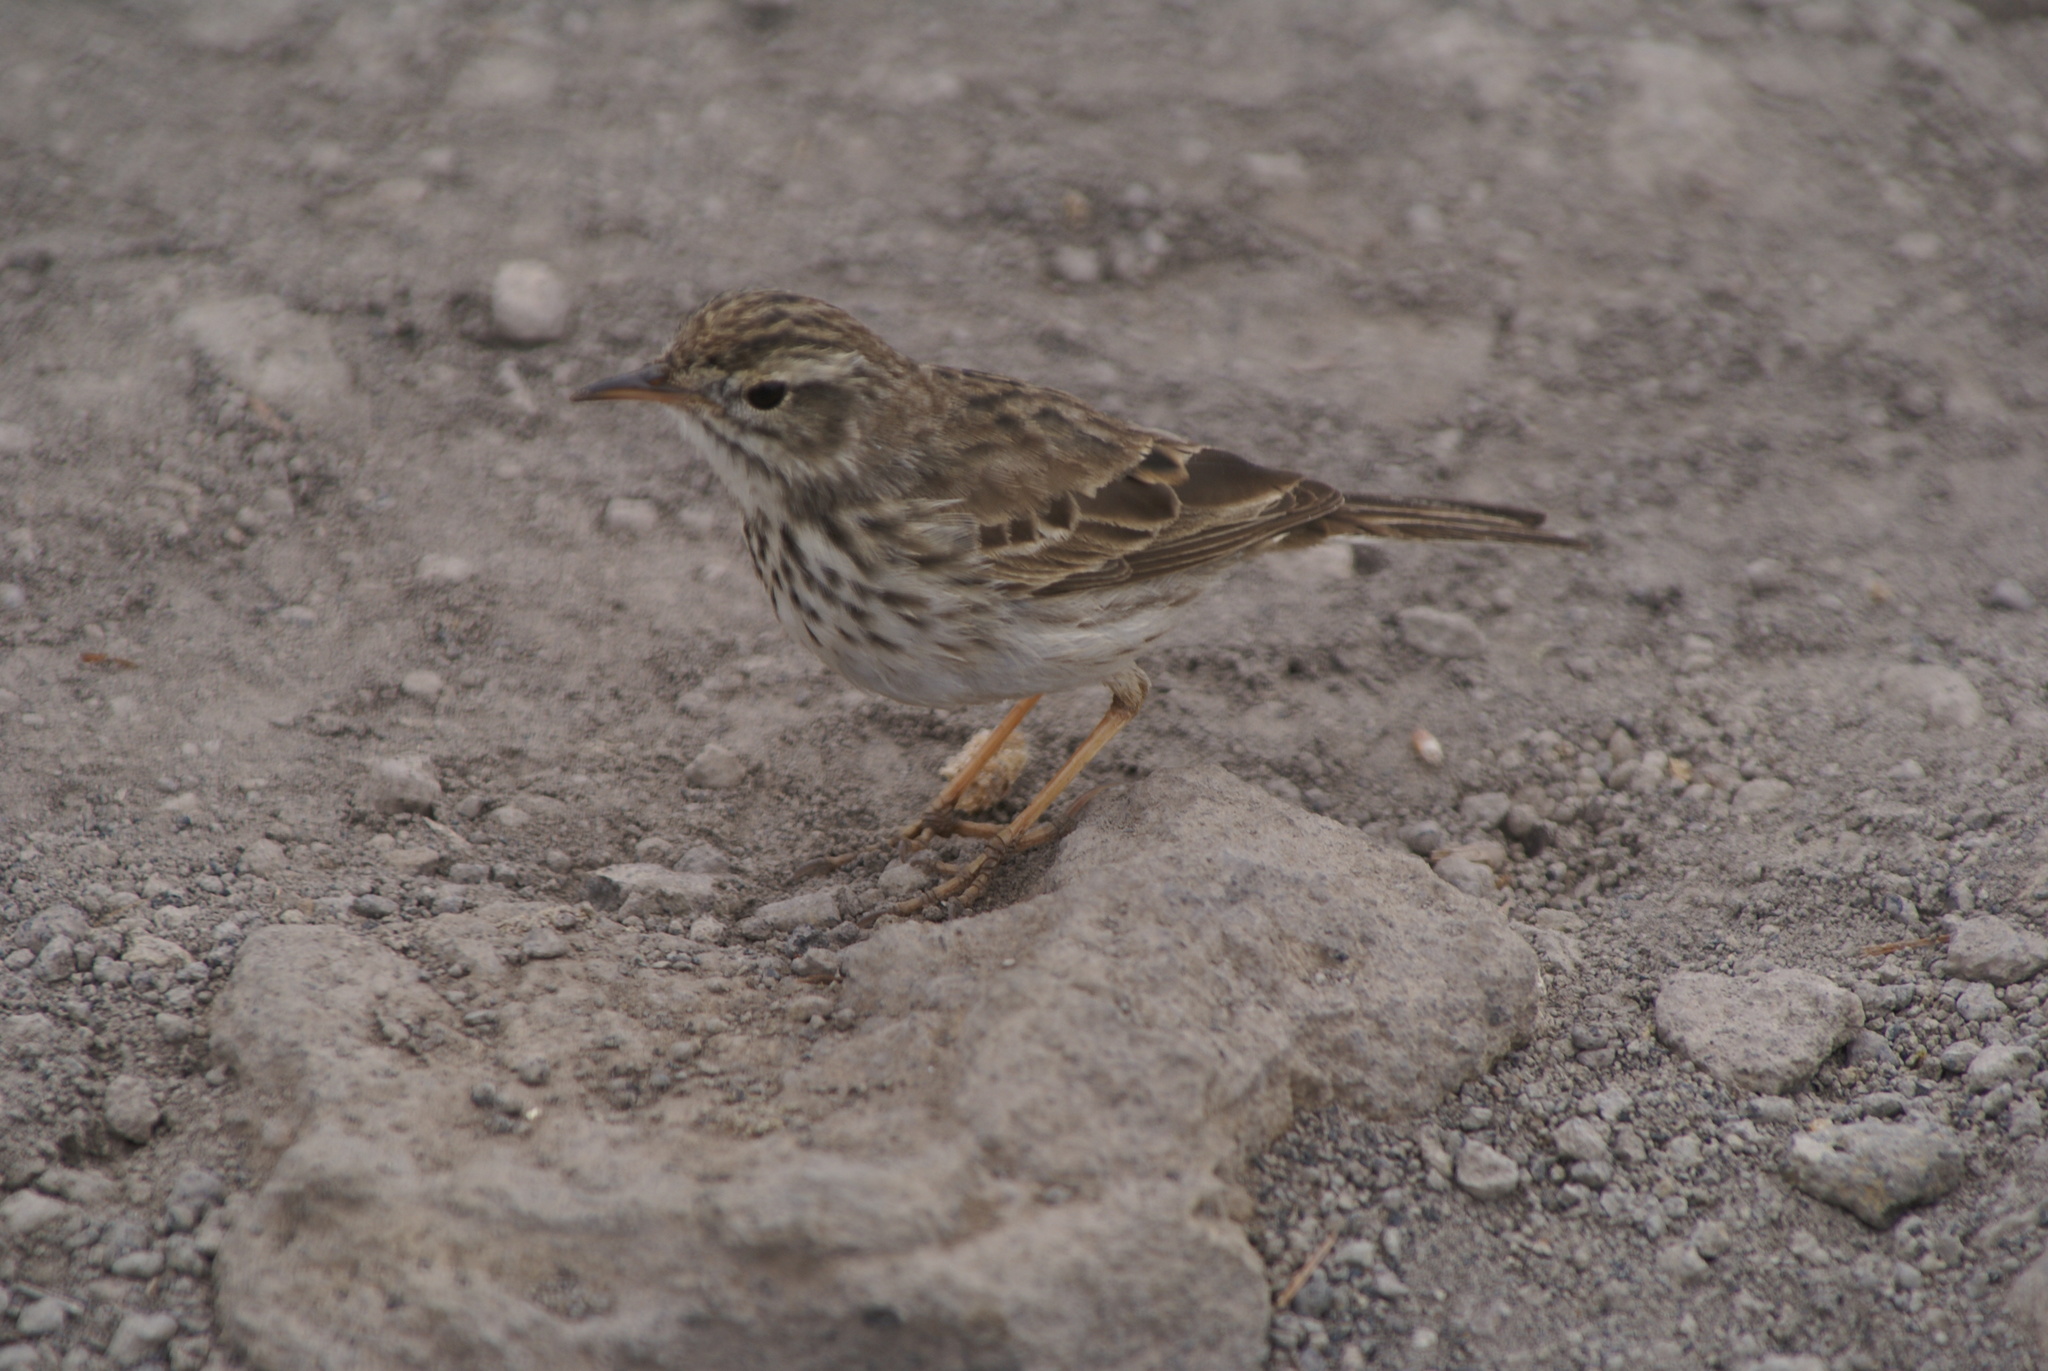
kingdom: Animalia
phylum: Chordata
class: Aves
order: Passeriformes
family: Motacillidae
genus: Anthus
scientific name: Anthus berthelotii
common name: Berthelot's pipit
